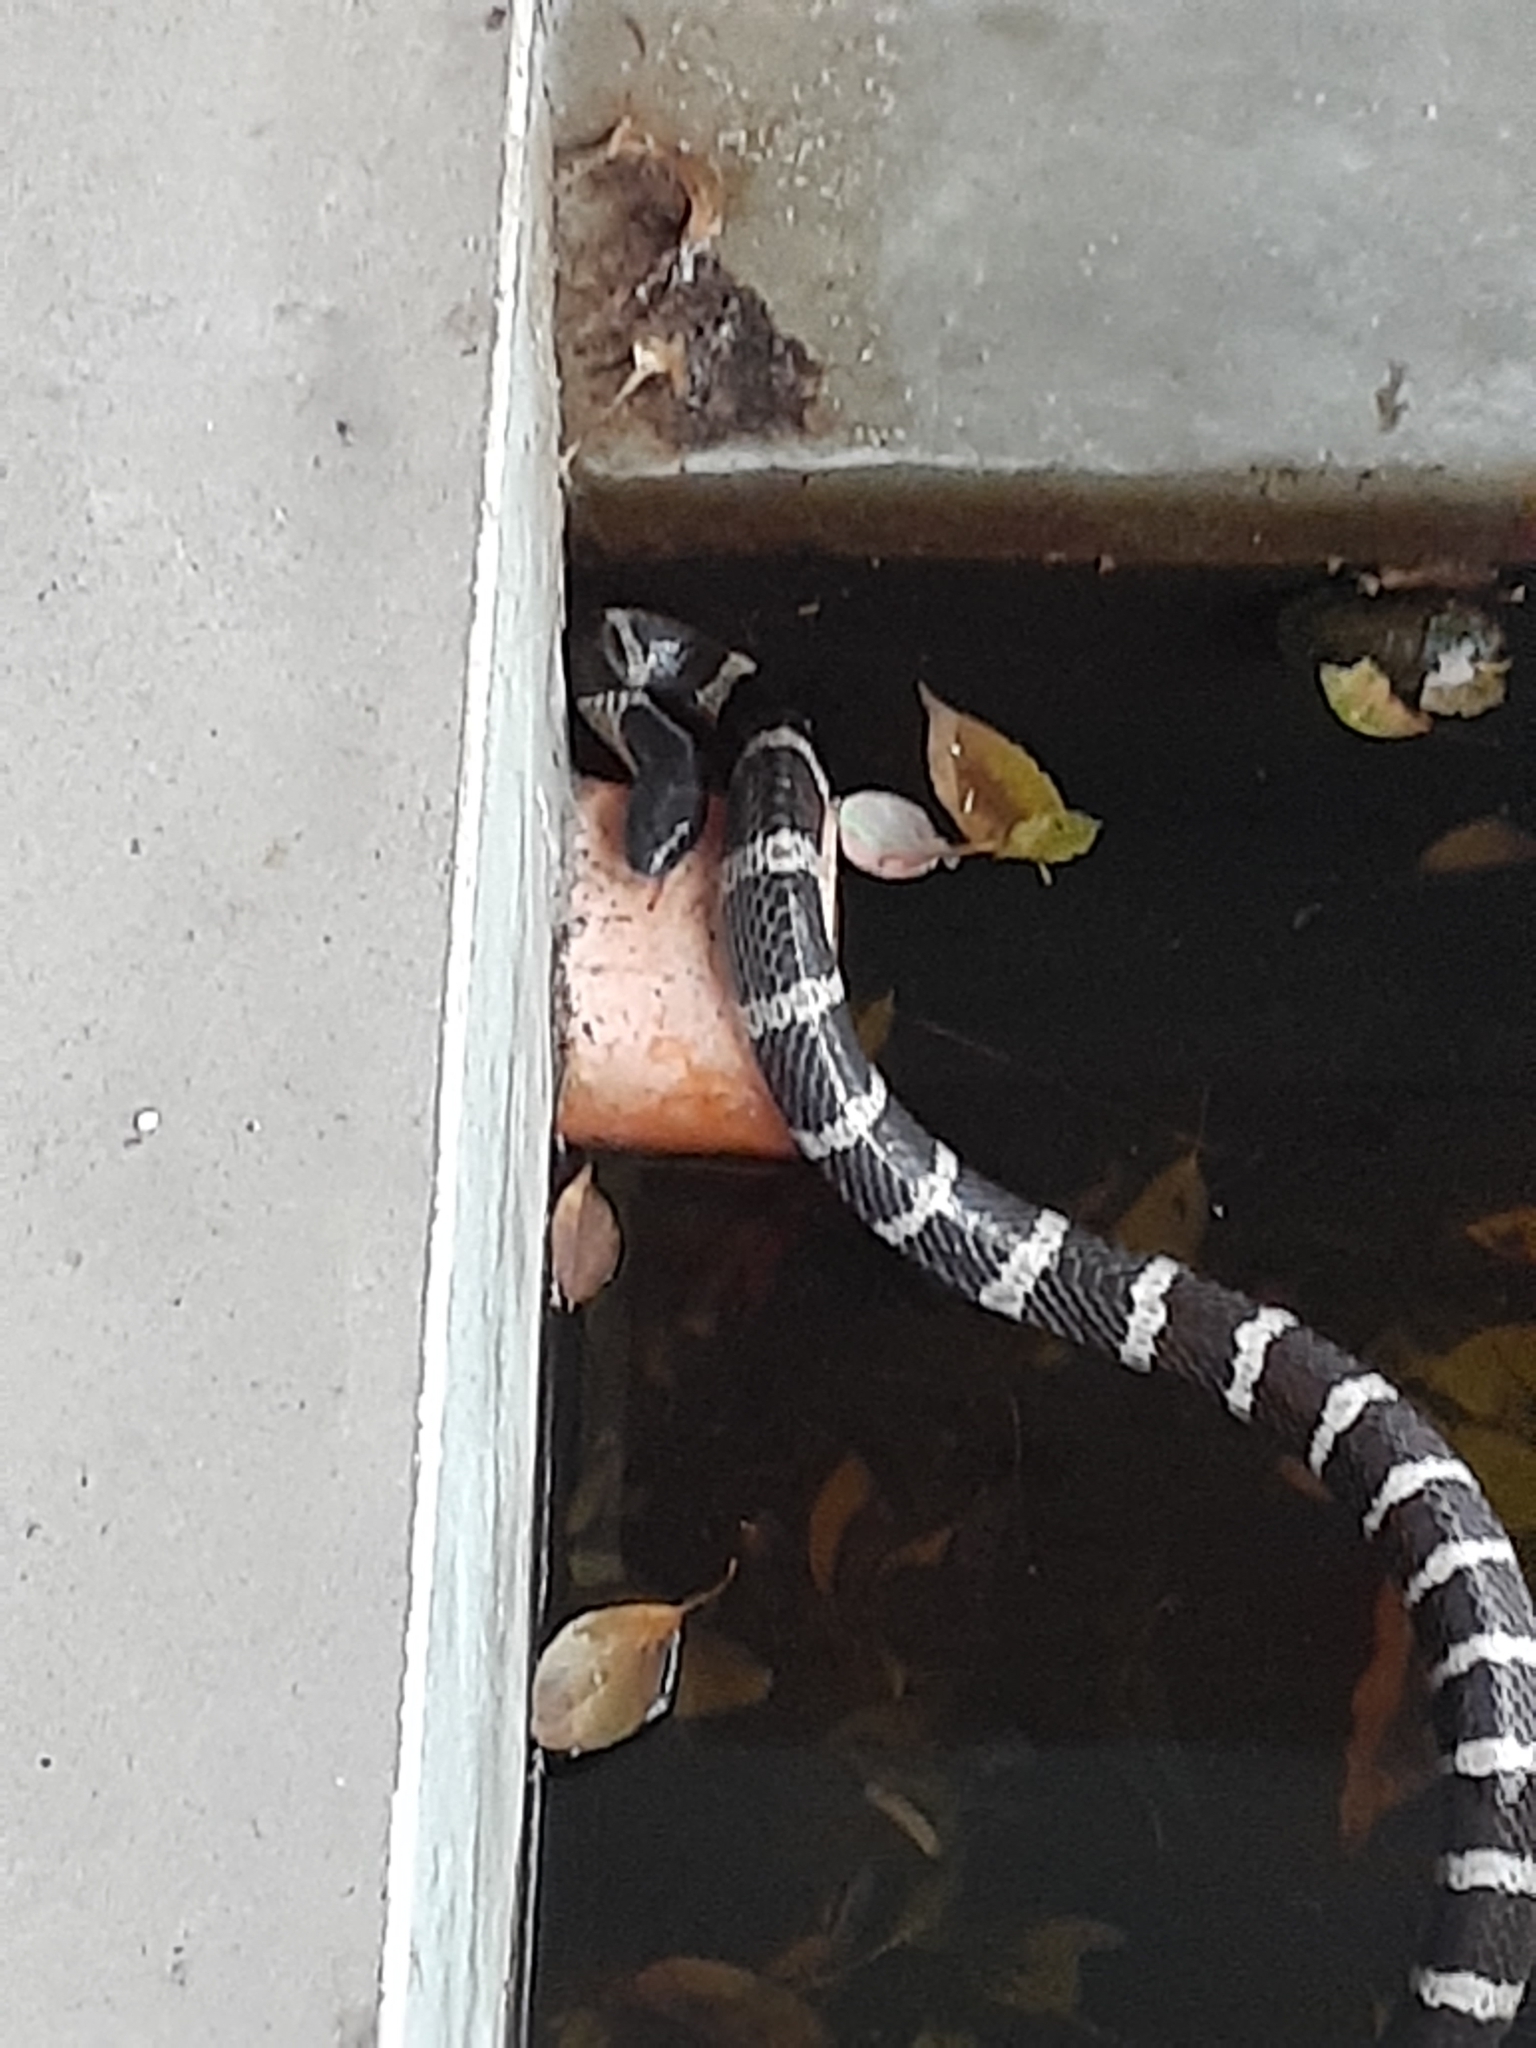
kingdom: Animalia
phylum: Chordata
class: Squamata
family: Elapidae
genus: Bungarus
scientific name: Bungarus multicinctus
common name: Many-banded krait
